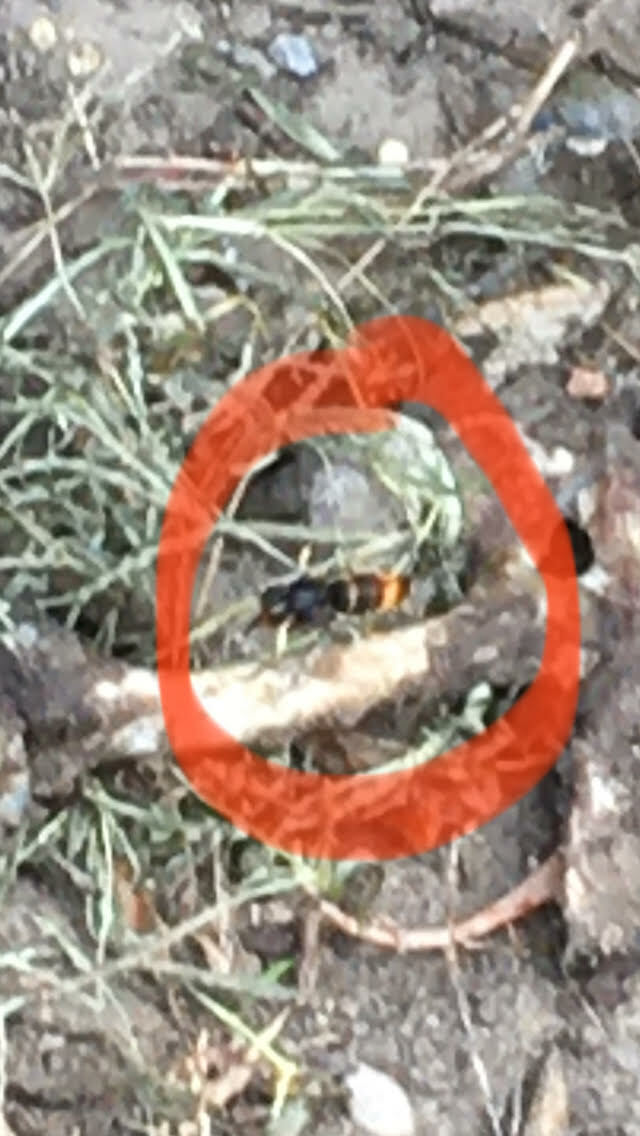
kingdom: Animalia
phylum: Arthropoda
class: Insecta
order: Hymenoptera
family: Vespidae
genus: Vespa
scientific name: Vespa velutina
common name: Asian hornet
